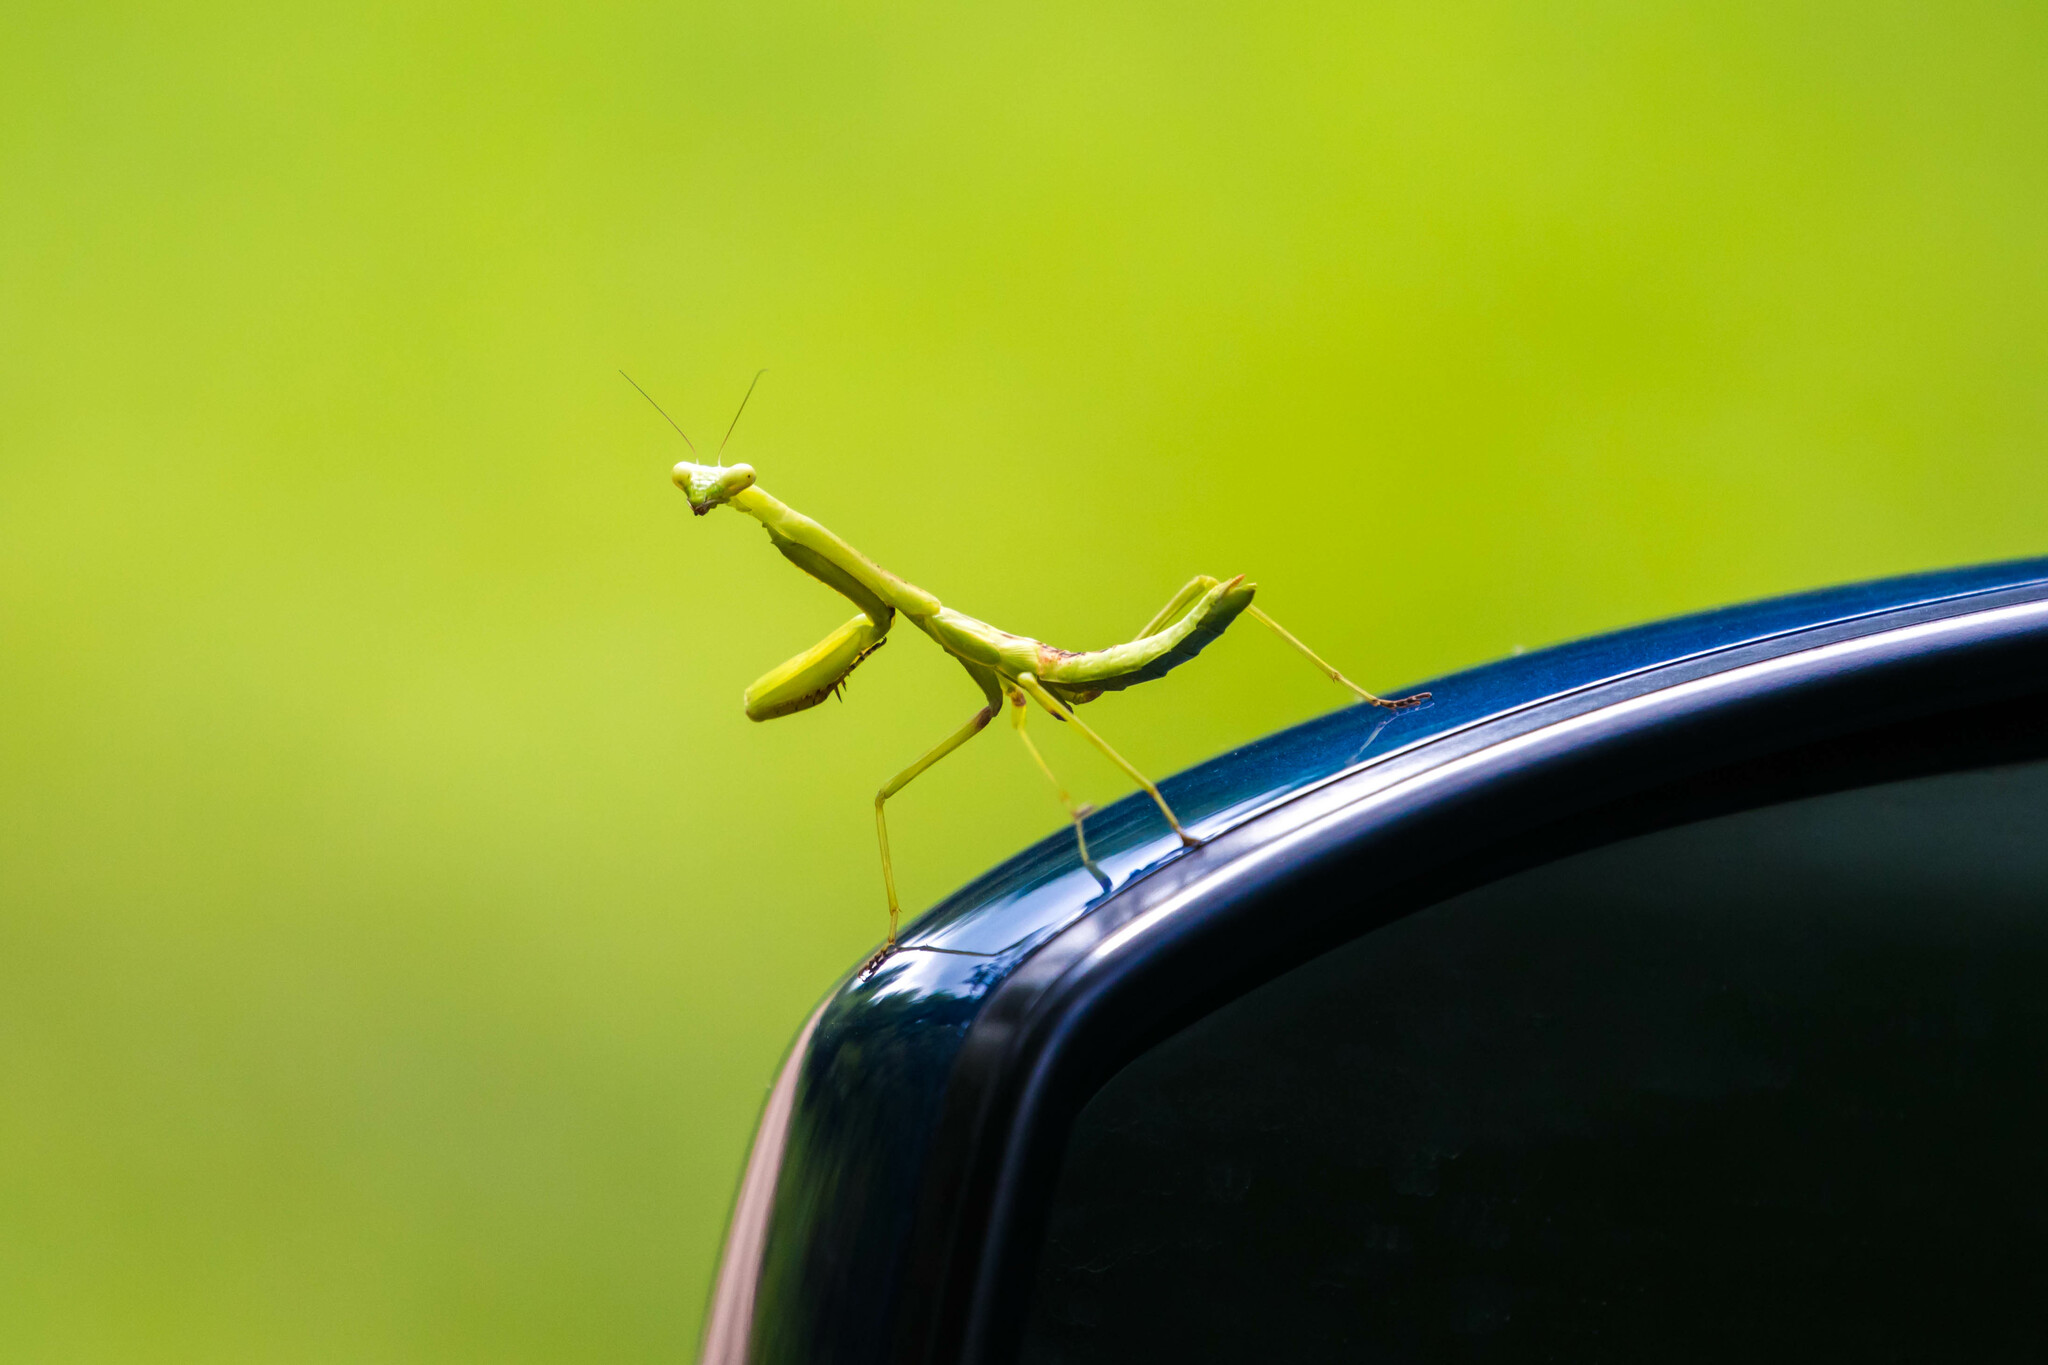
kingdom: Animalia
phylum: Arthropoda
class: Insecta
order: Mantodea
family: Mantidae
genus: Stagmomantis
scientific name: Stagmomantis carolina
